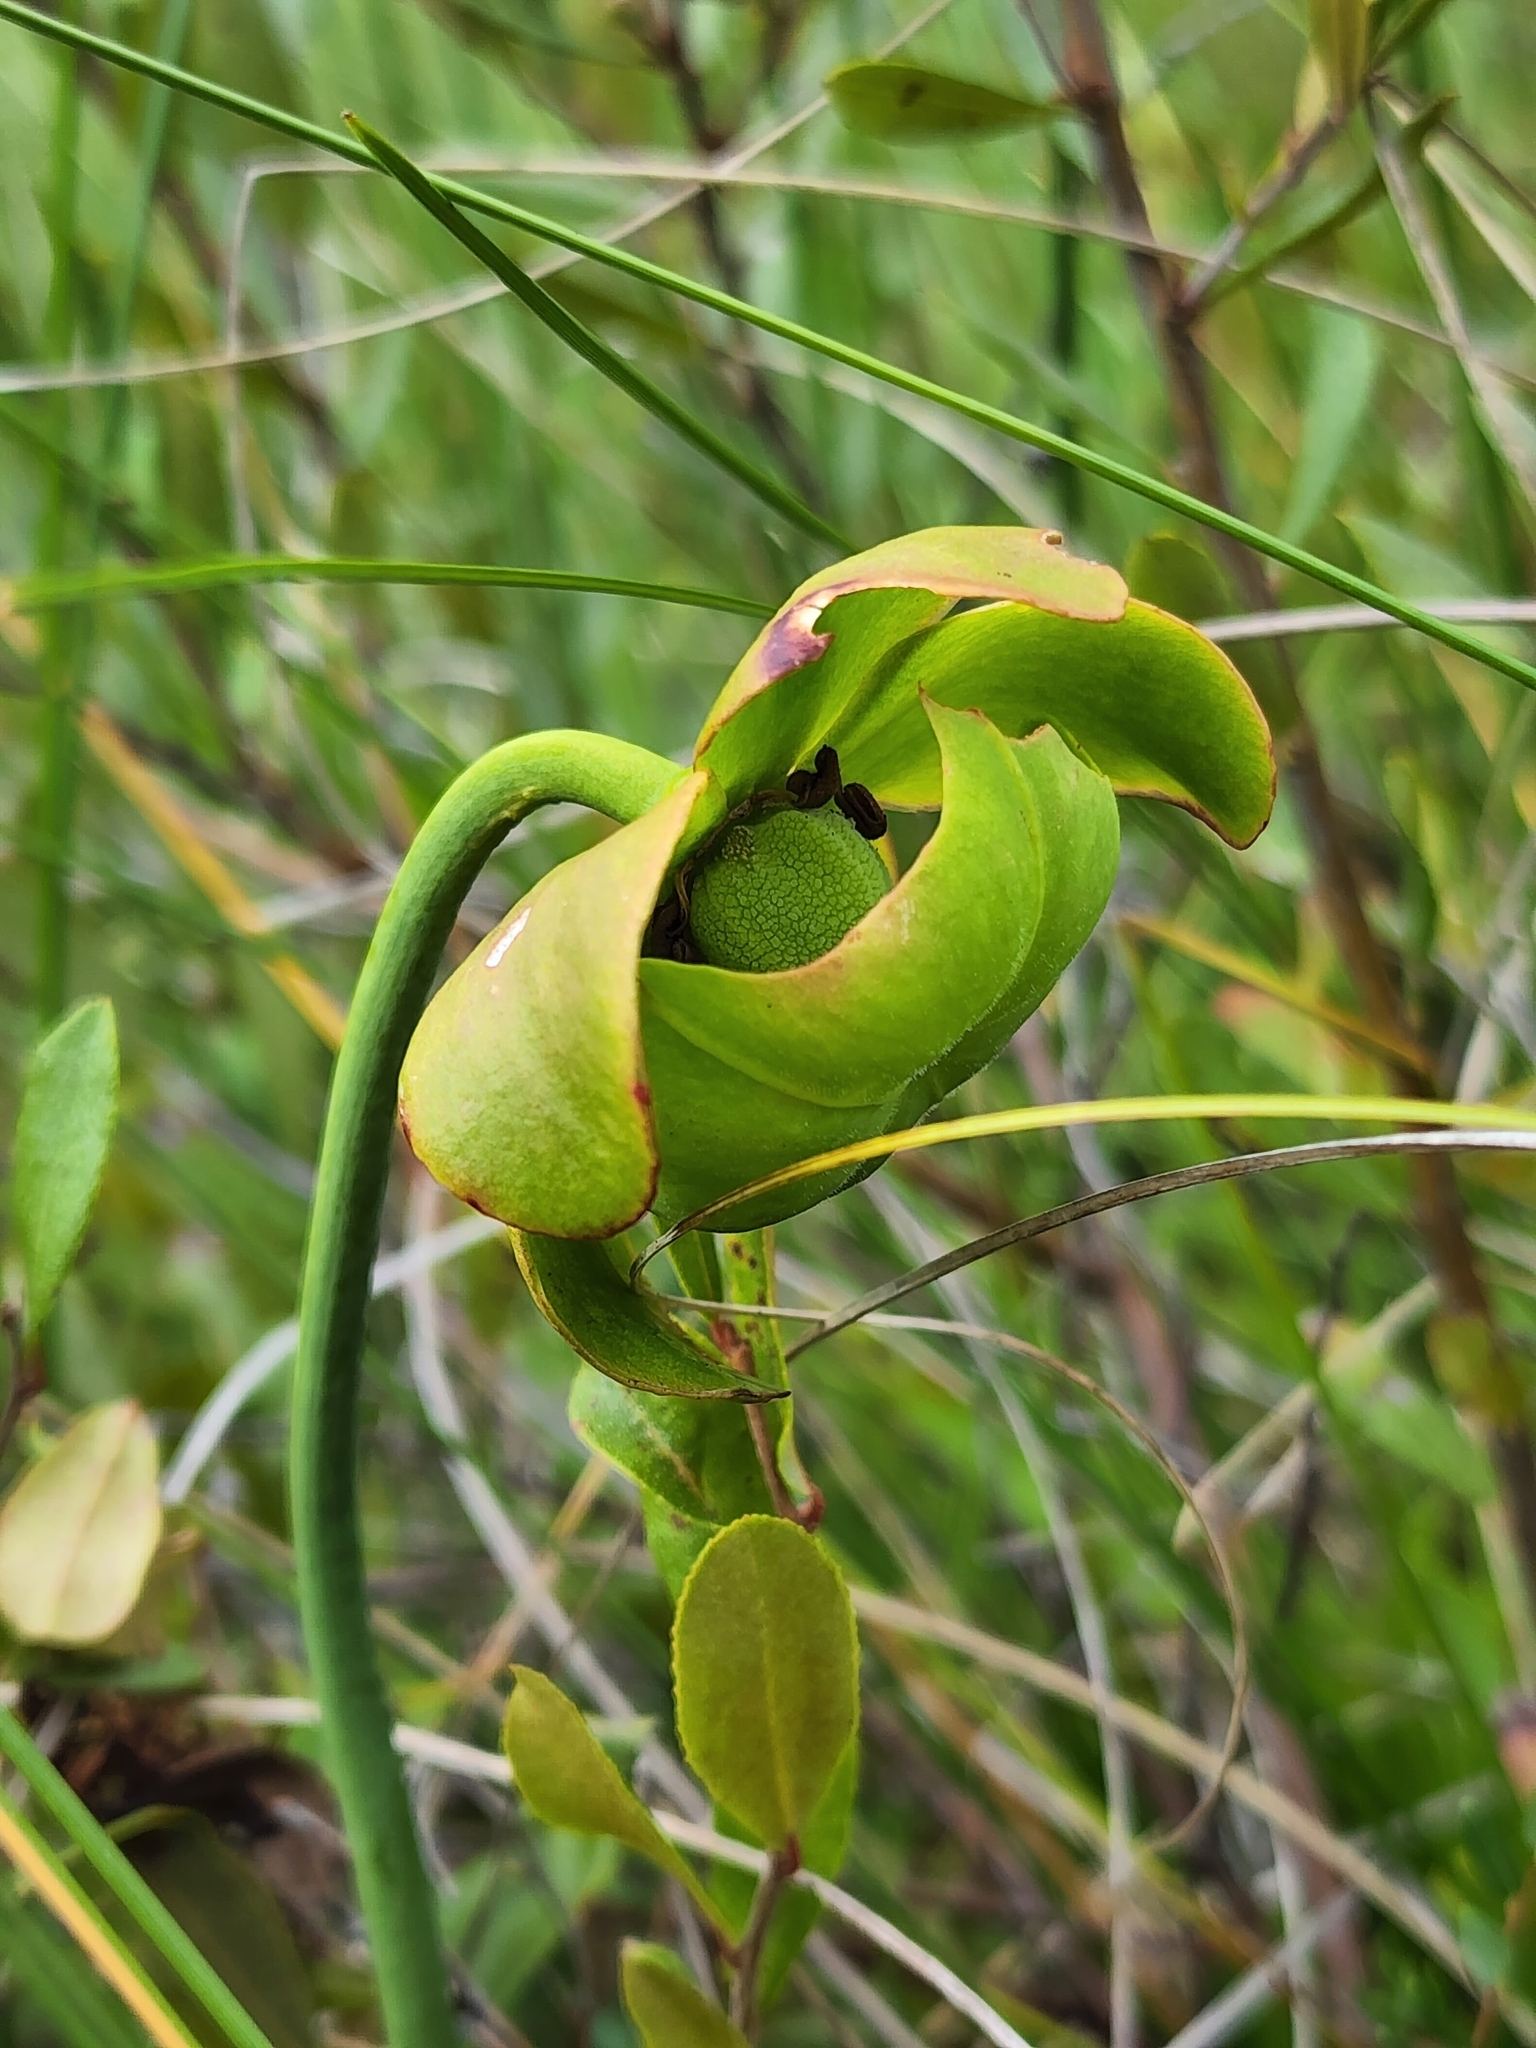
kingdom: Plantae
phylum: Tracheophyta
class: Magnoliopsida
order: Ericales
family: Sarraceniaceae
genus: Sarracenia
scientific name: Sarracenia purpurea
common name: Pitcherplant
